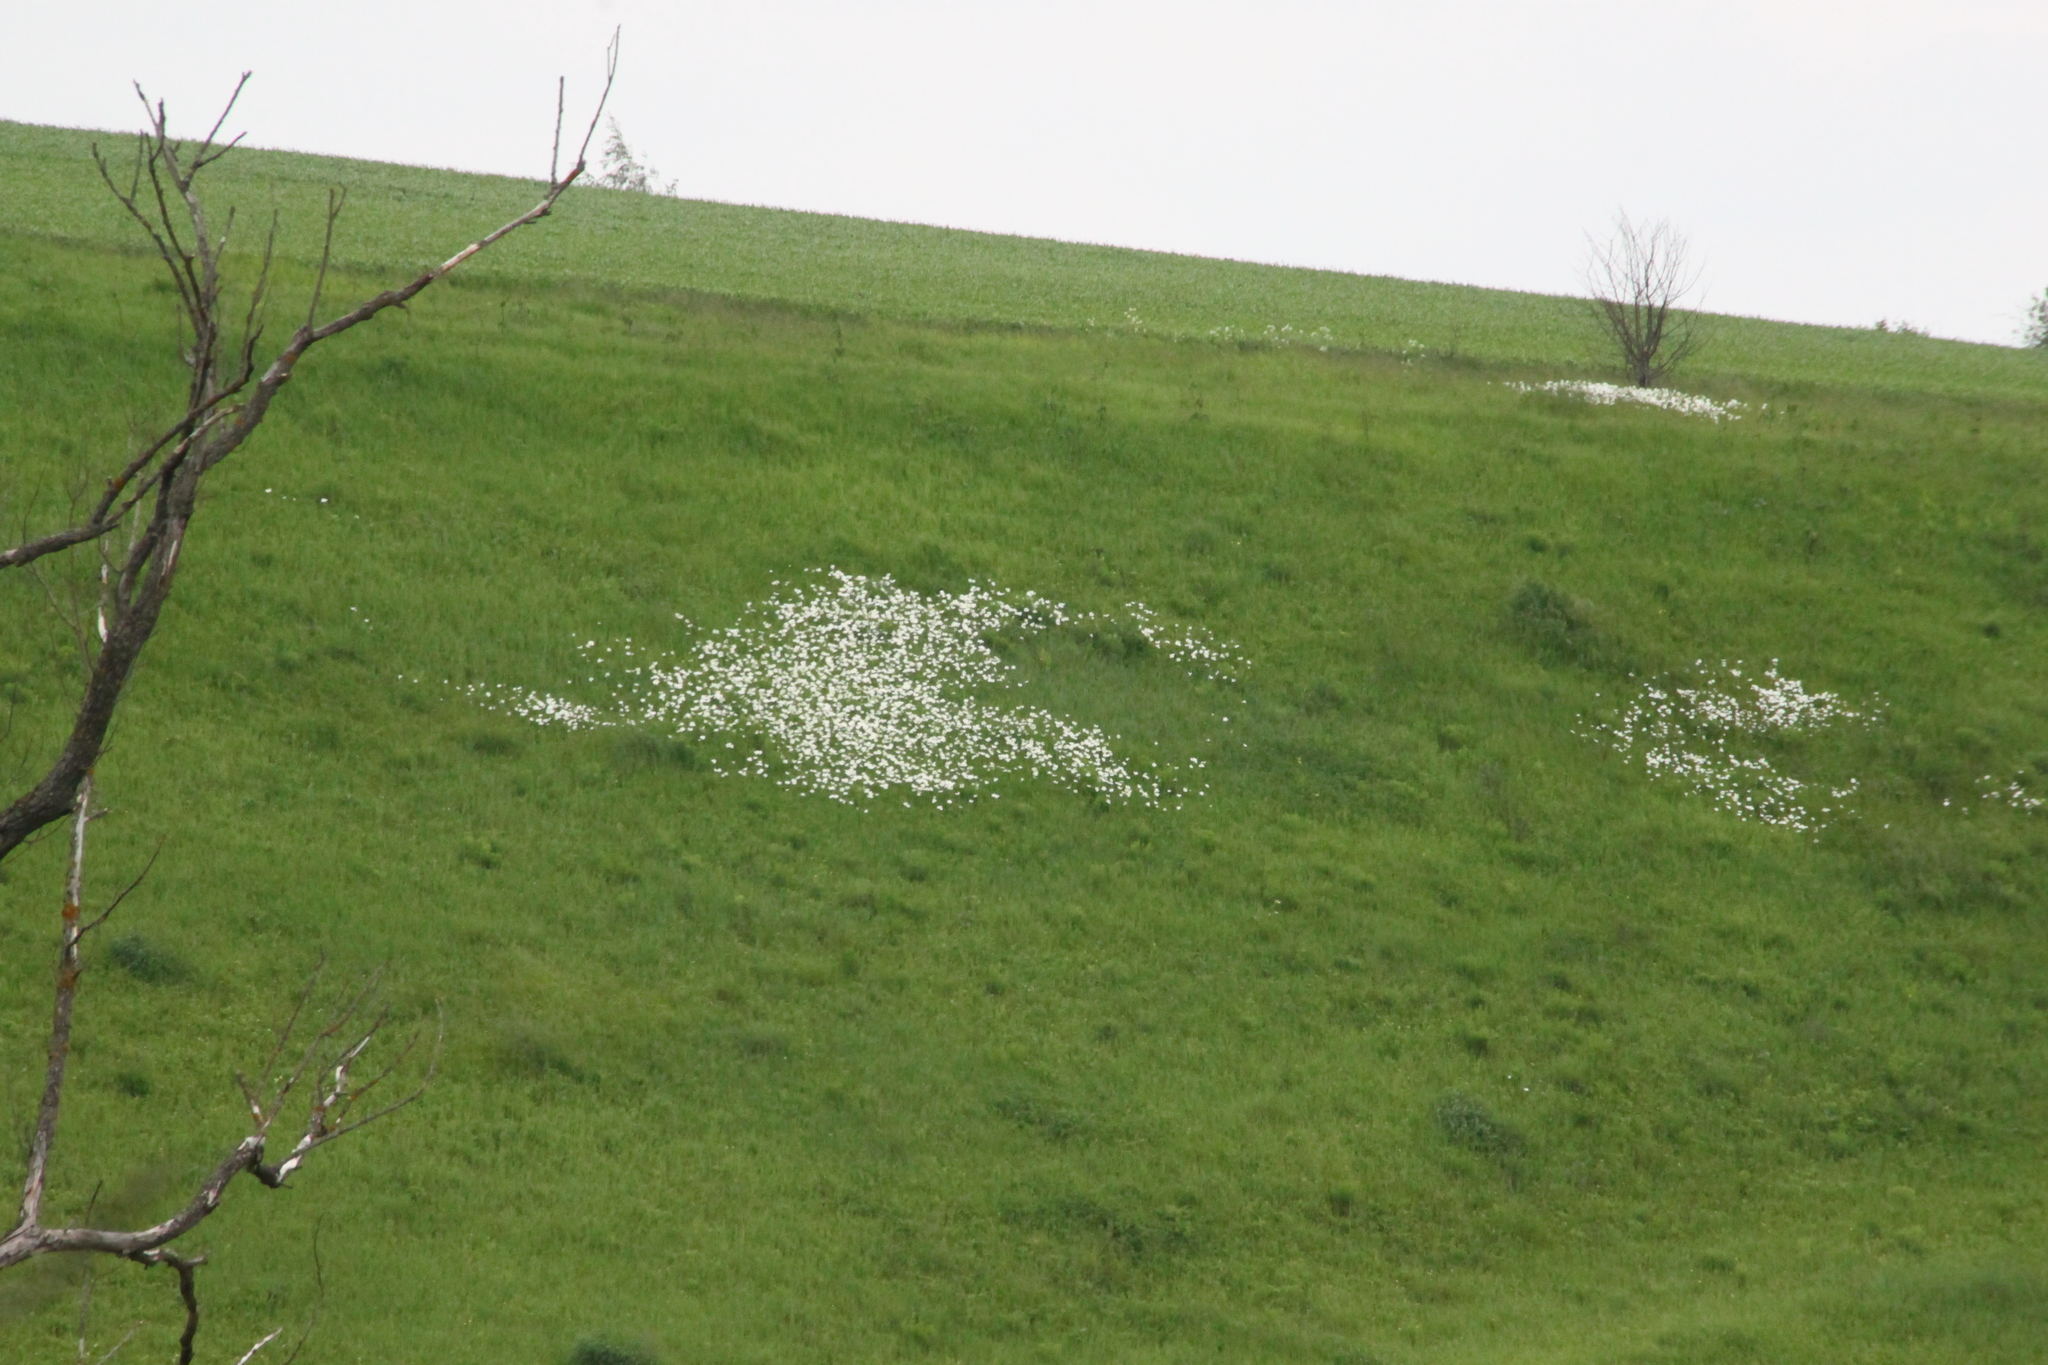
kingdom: Plantae
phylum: Tracheophyta
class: Magnoliopsida
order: Ranunculales
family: Ranunculaceae
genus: Anemone
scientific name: Anemone sylvestris
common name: Snowdrop anemone
